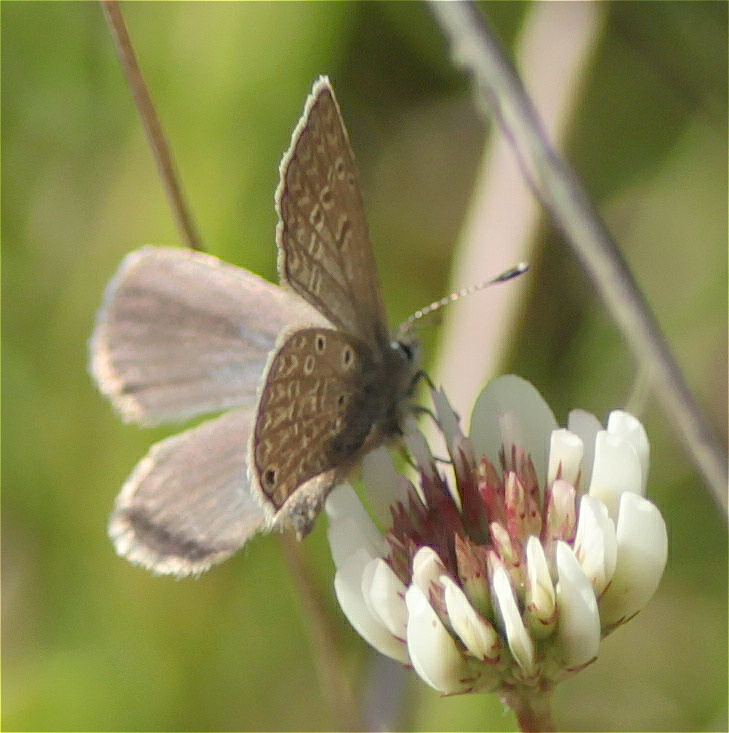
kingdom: Animalia
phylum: Arthropoda
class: Insecta
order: Lepidoptera
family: Lycaenidae
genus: Hemiargus
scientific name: Hemiargus hanno
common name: Common blue
